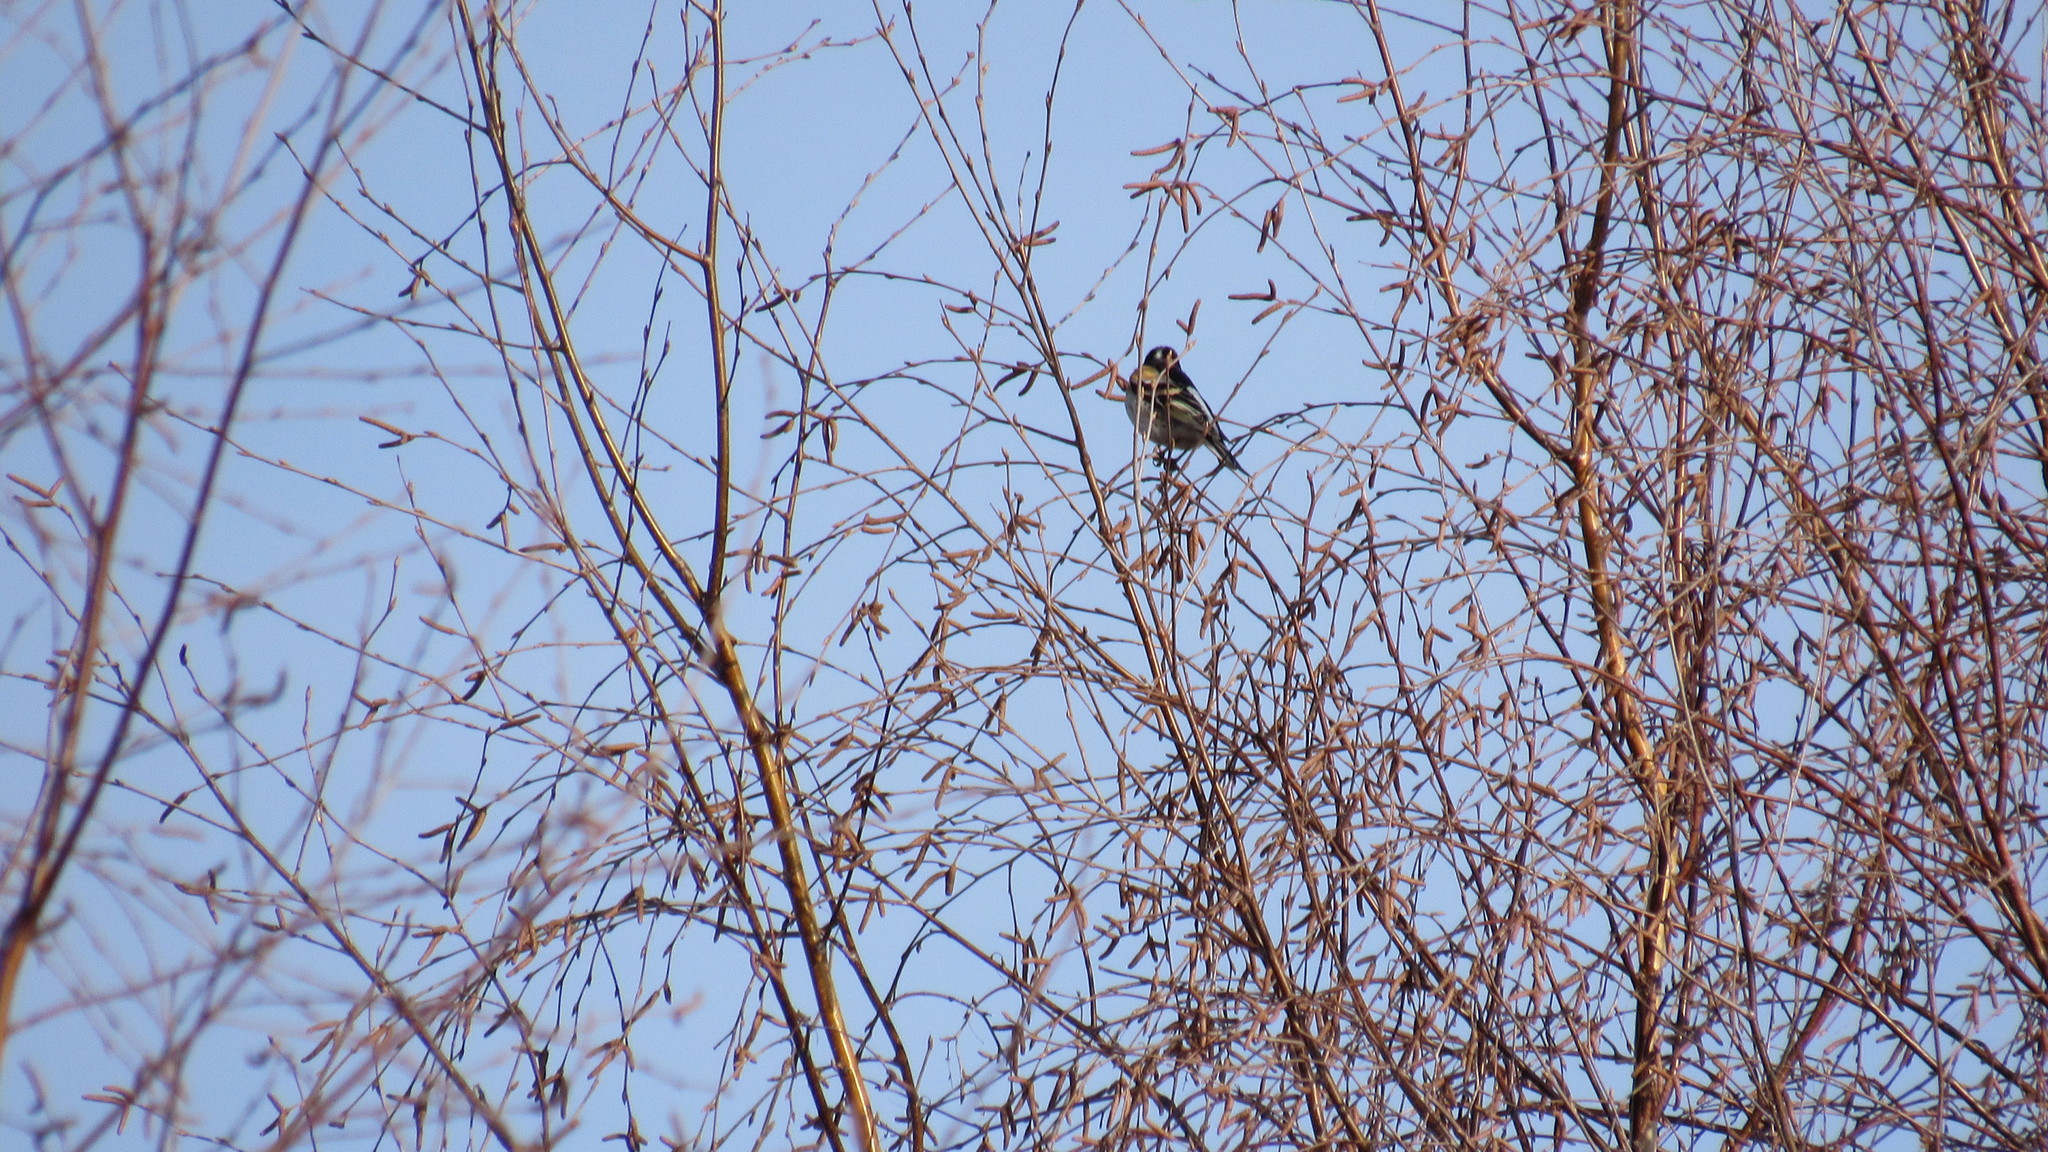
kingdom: Animalia
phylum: Chordata
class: Aves
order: Passeriformes
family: Fringillidae
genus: Fringilla
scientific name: Fringilla montifringilla
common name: Brambling
